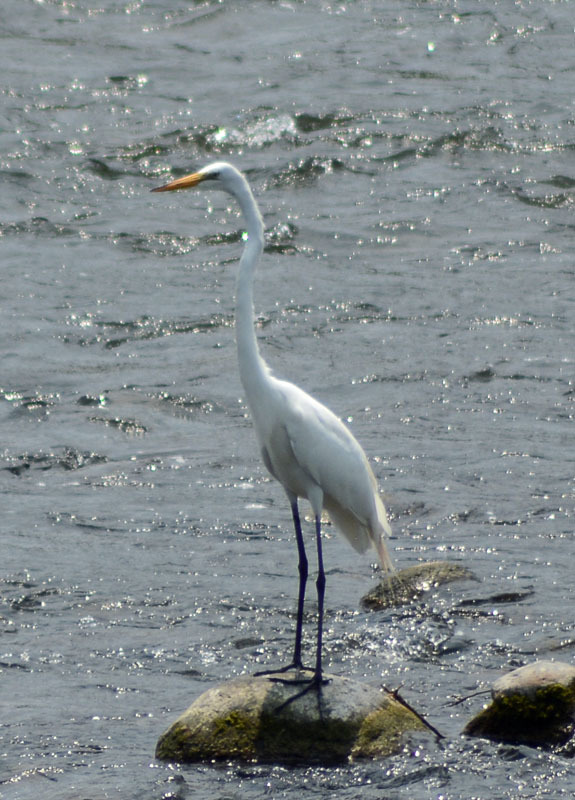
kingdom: Animalia
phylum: Chordata
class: Aves
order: Pelecaniformes
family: Ardeidae
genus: Ardea
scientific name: Ardea alba
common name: Great egret
